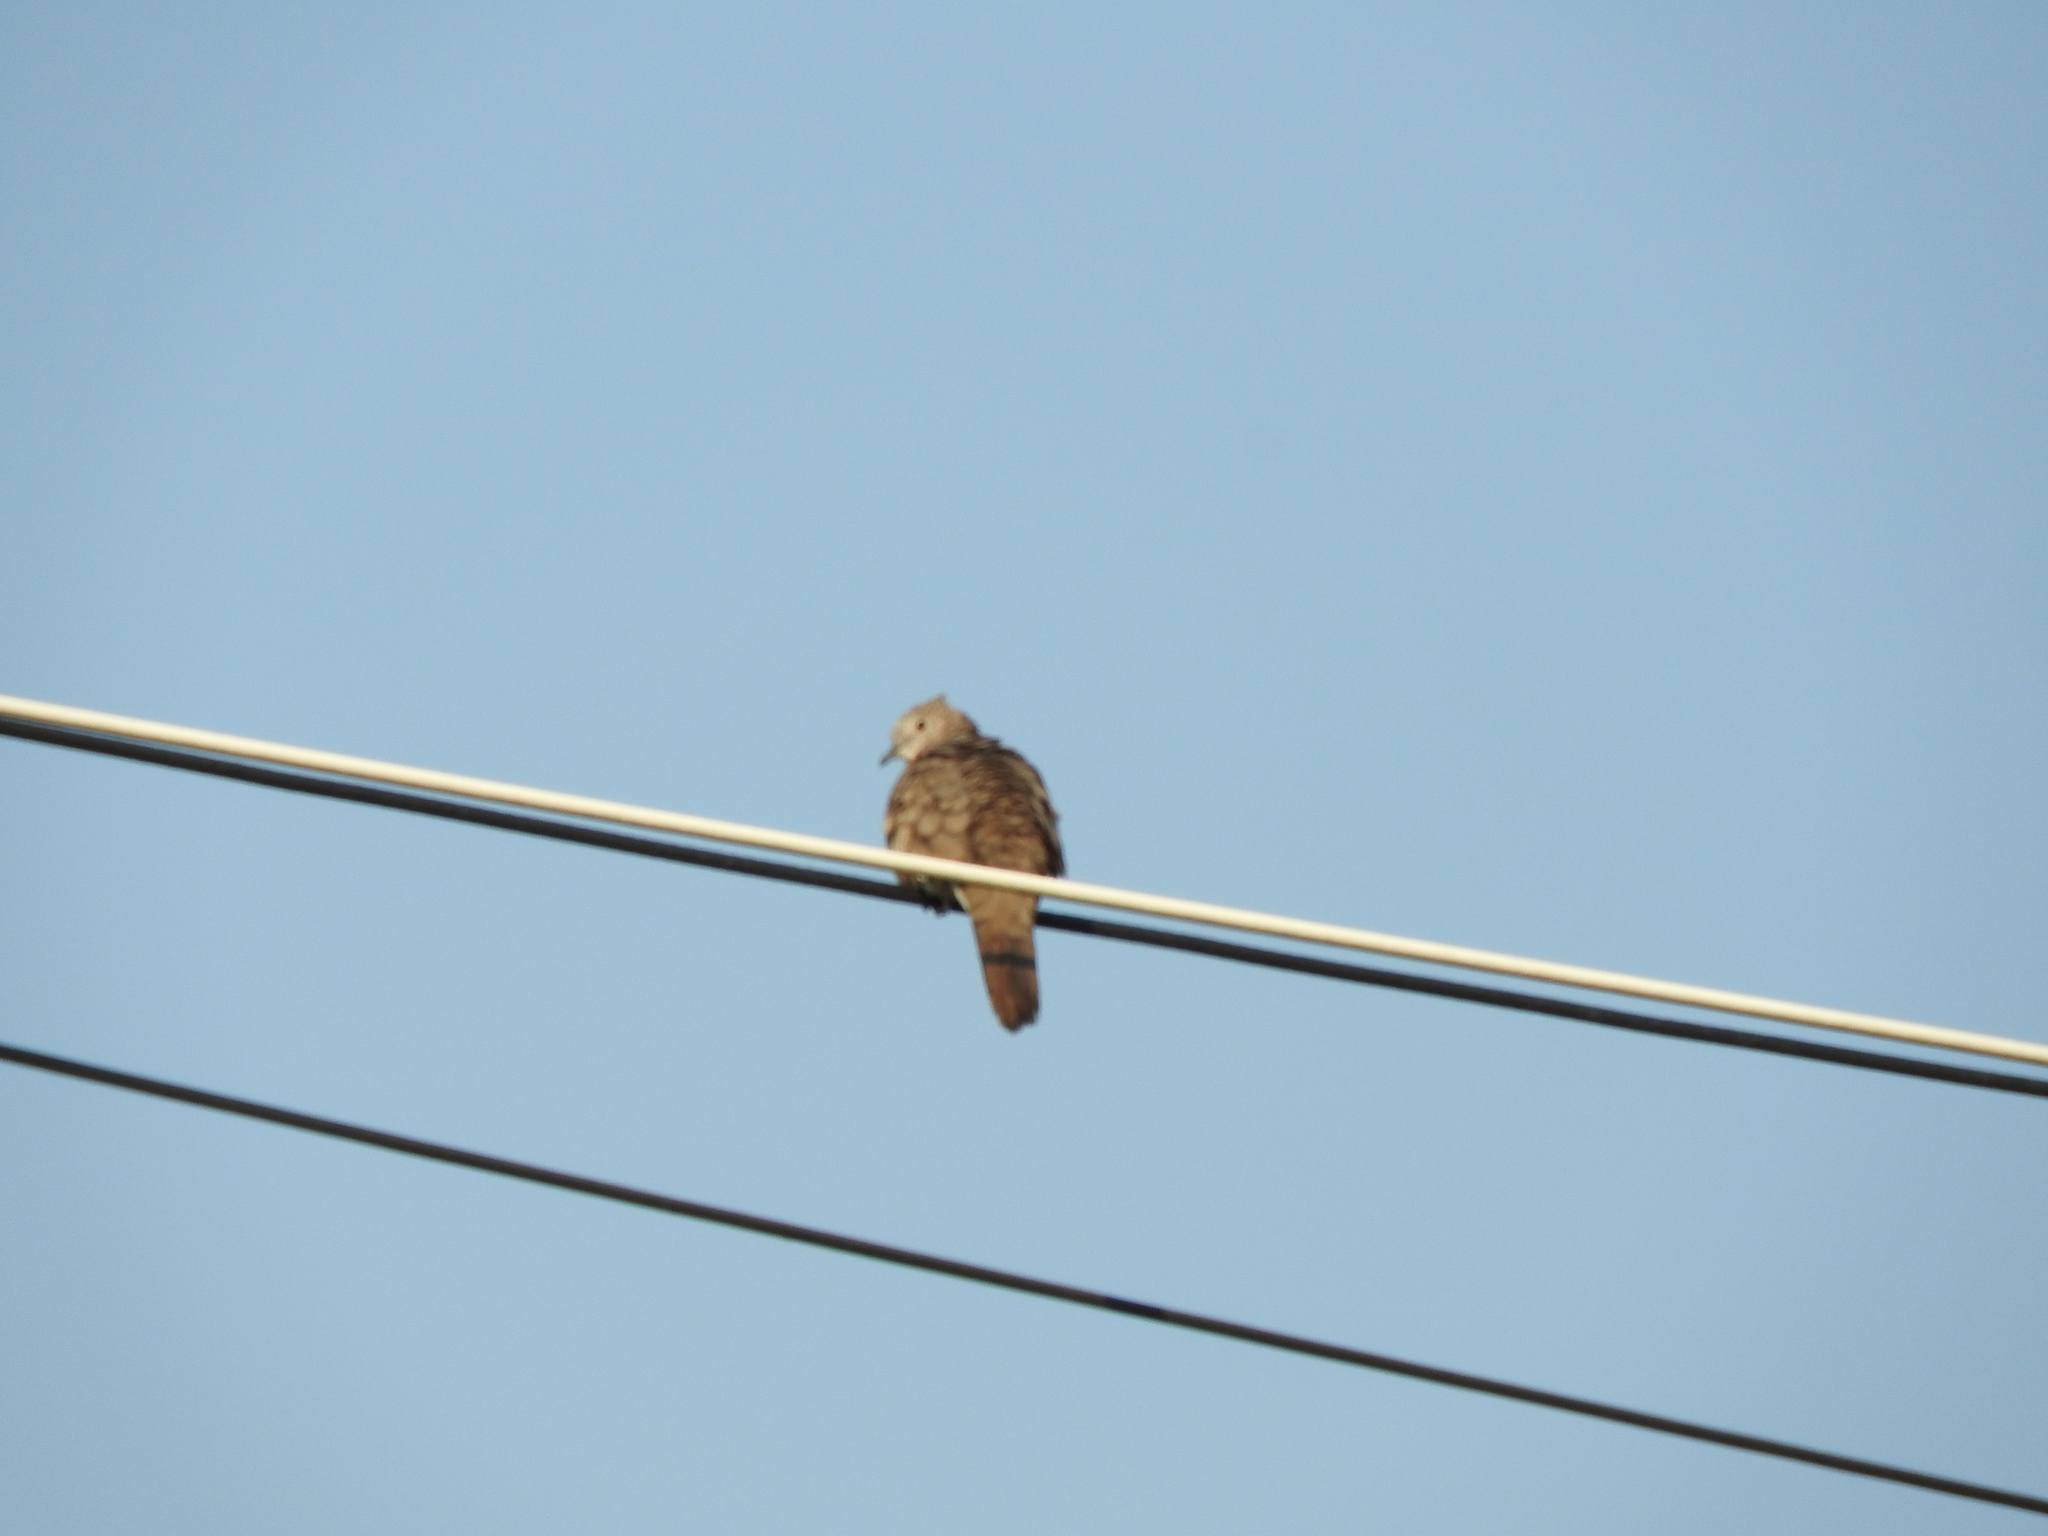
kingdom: Animalia
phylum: Chordata
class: Aves
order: Columbiformes
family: Columbidae
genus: Columbina
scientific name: Columbina inca
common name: Inca dove
